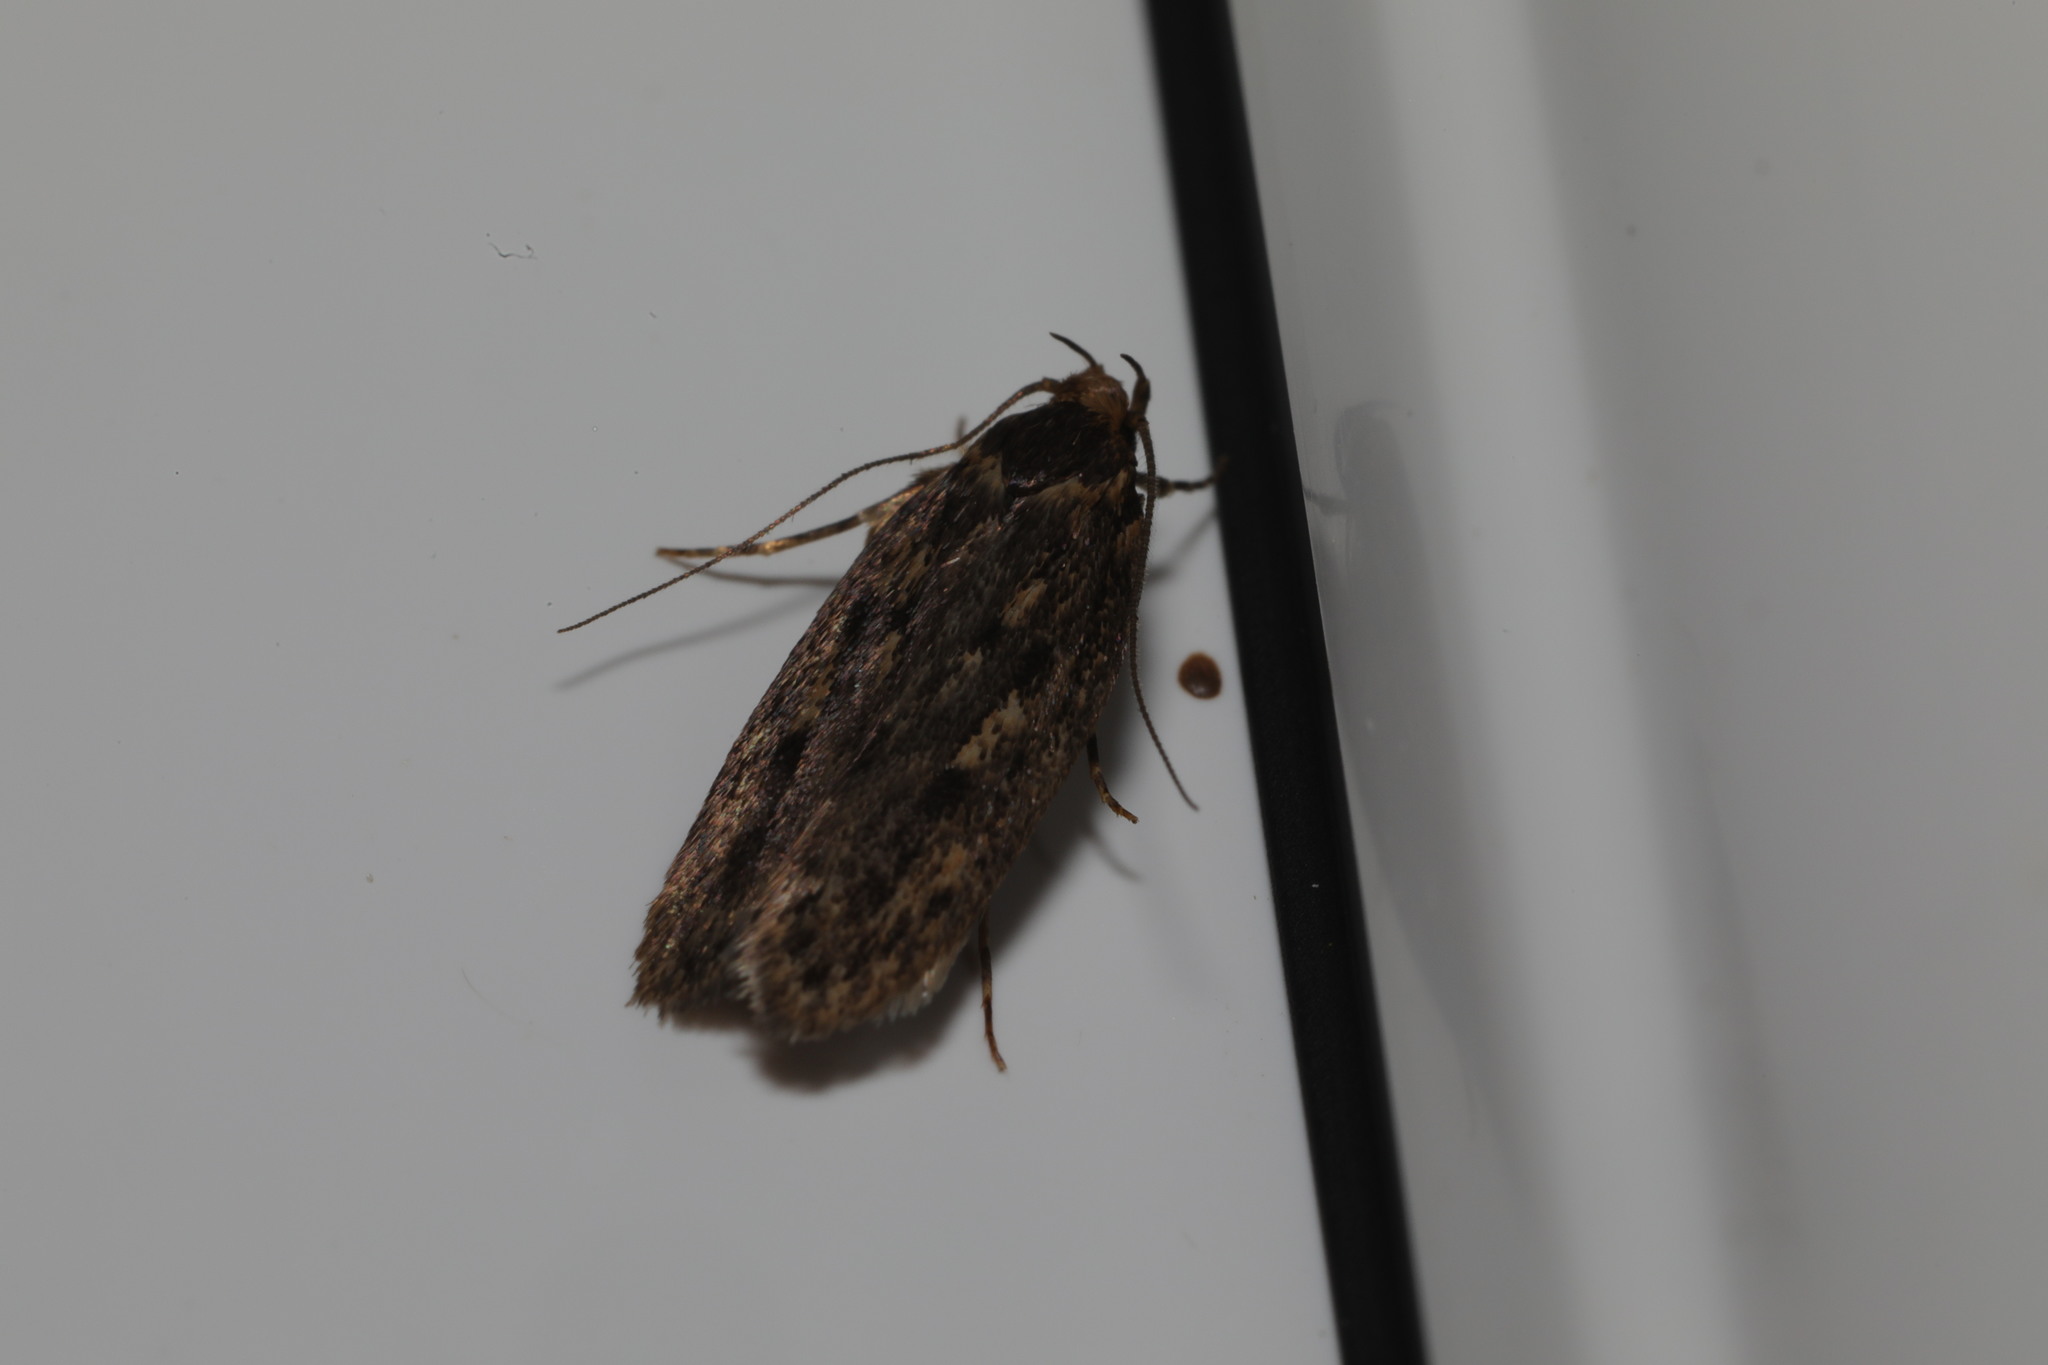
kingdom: Animalia
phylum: Arthropoda
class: Insecta
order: Lepidoptera
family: Oecophoridae
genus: Hofmannophila
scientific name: Hofmannophila pseudospretella
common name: Brown house moth
